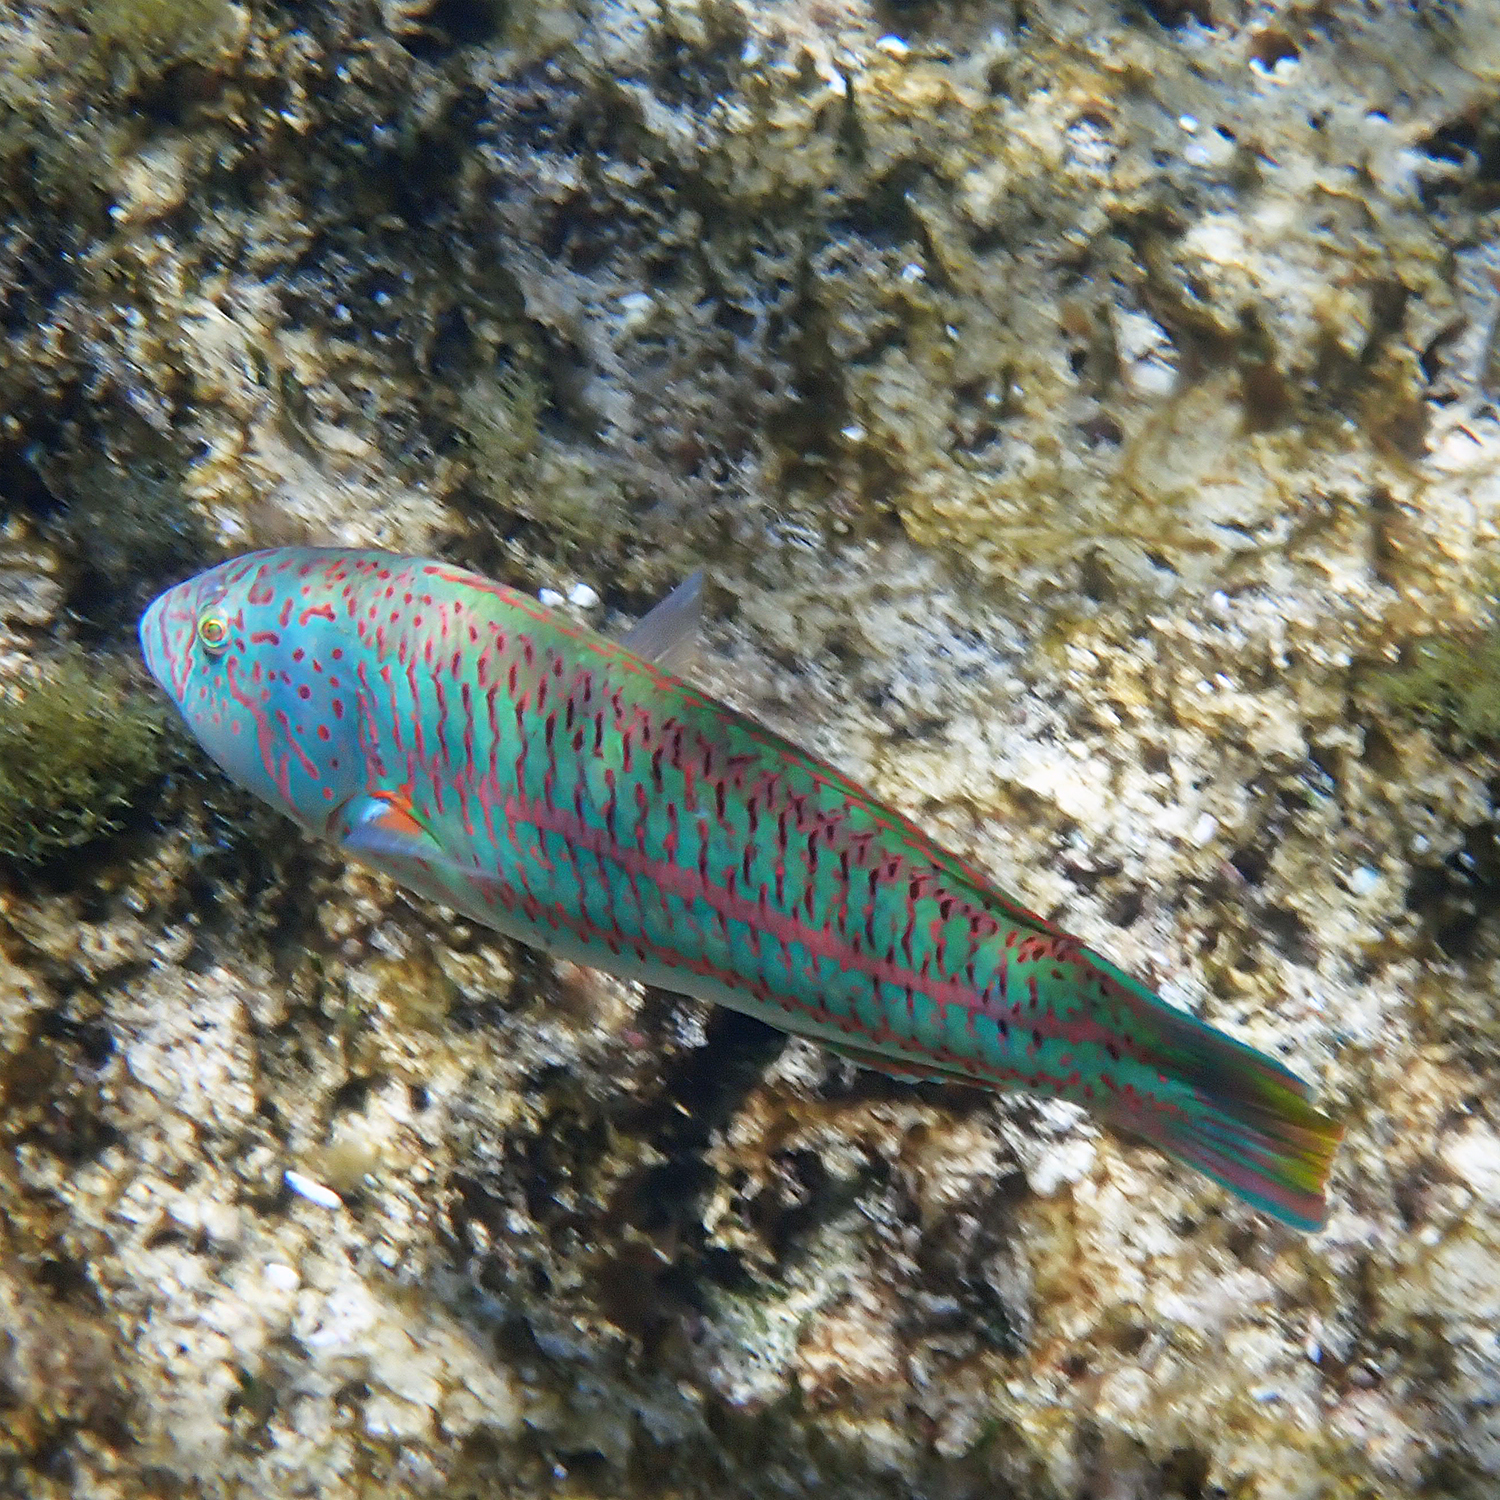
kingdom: Animalia
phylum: Chordata
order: Perciformes
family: Labridae
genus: Thalassoma
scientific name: Thalassoma purpureum
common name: Parrotfish
